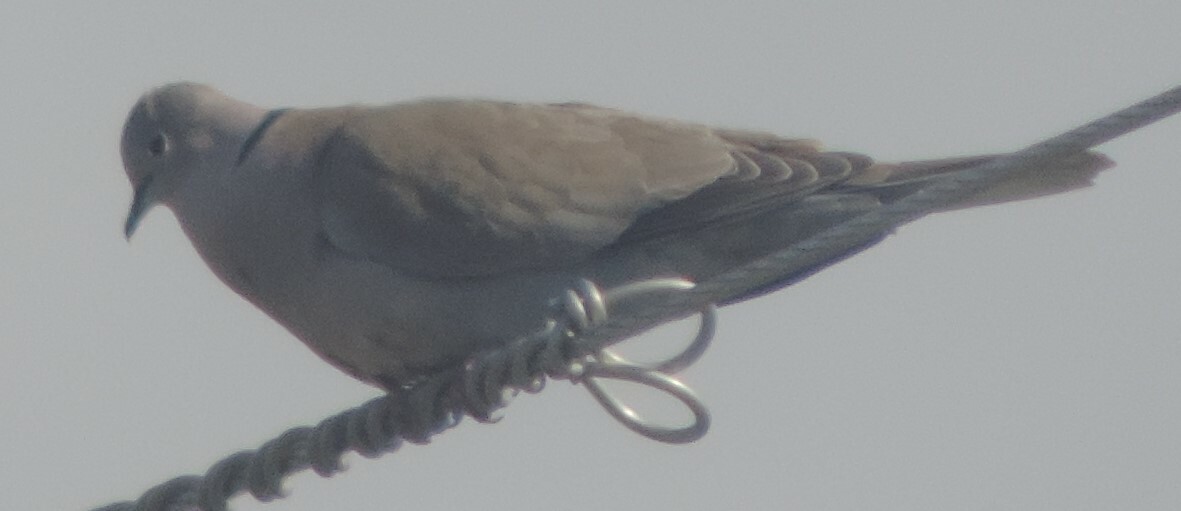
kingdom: Animalia
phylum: Chordata
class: Aves
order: Columbiformes
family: Columbidae
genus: Streptopelia
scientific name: Streptopelia decaocto
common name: Eurasian collared dove
